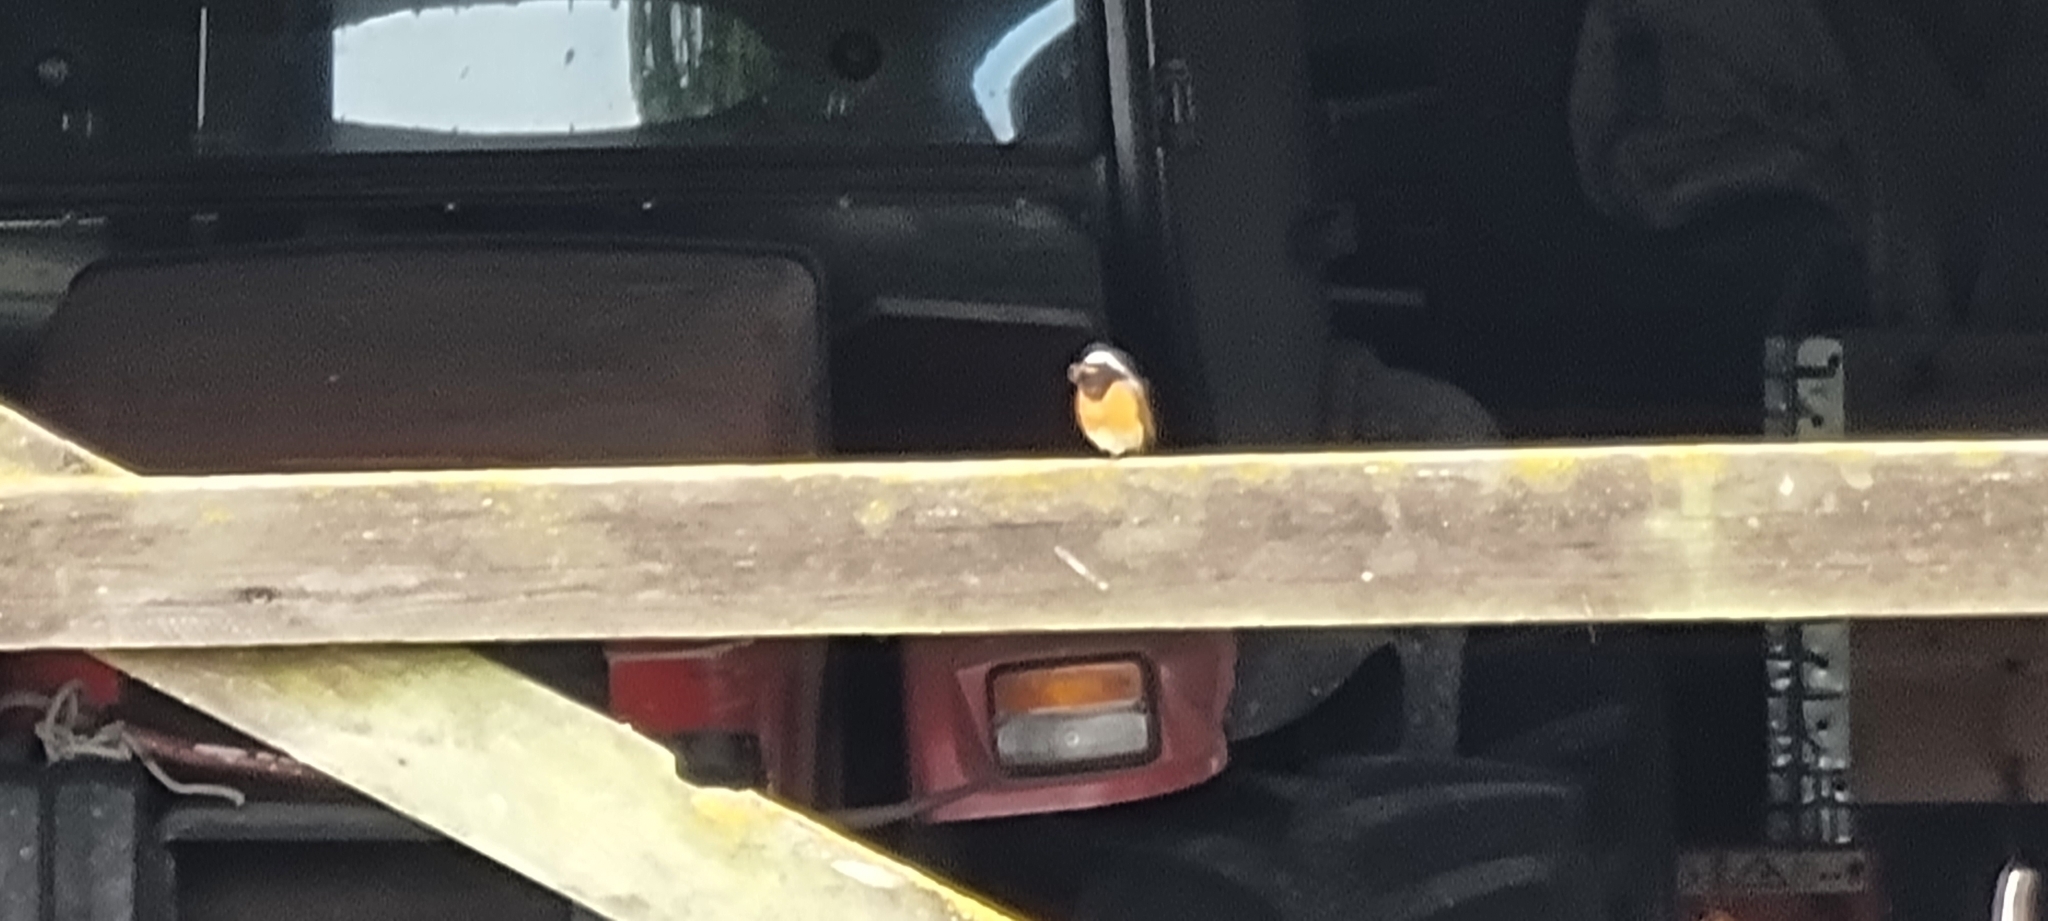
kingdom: Animalia
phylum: Chordata
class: Aves
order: Passeriformes
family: Muscicapidae
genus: Phoenicurus
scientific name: Phoenicurus phoenicurus
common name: Common redstart
